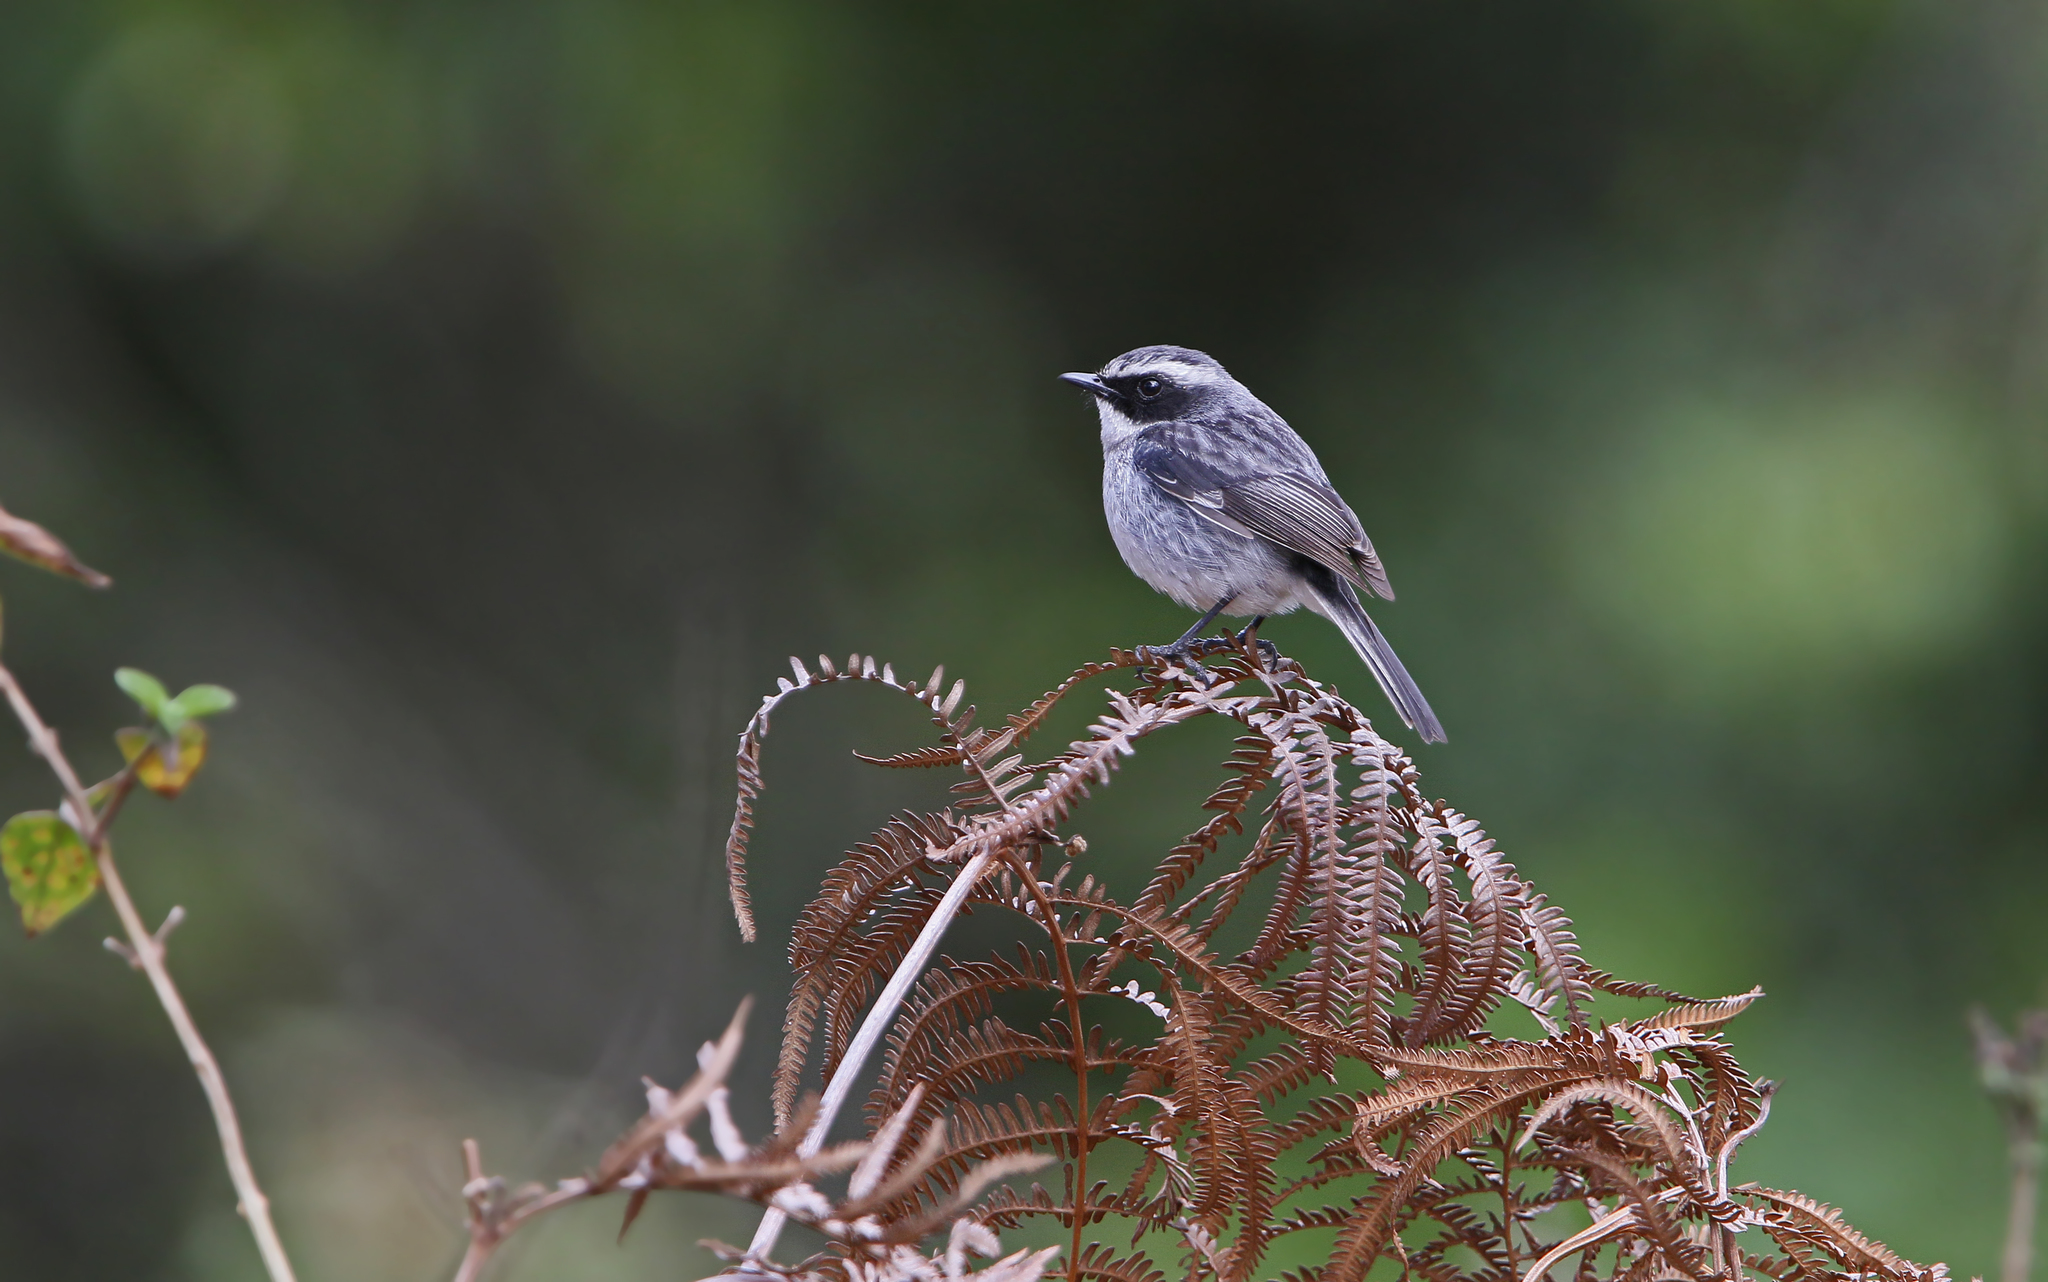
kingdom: Animalia
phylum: Chordata
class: Aves
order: Passeriformes
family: Muscicapidae
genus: Saxicola
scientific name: Saxicola ferreus
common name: Grey bush chat
